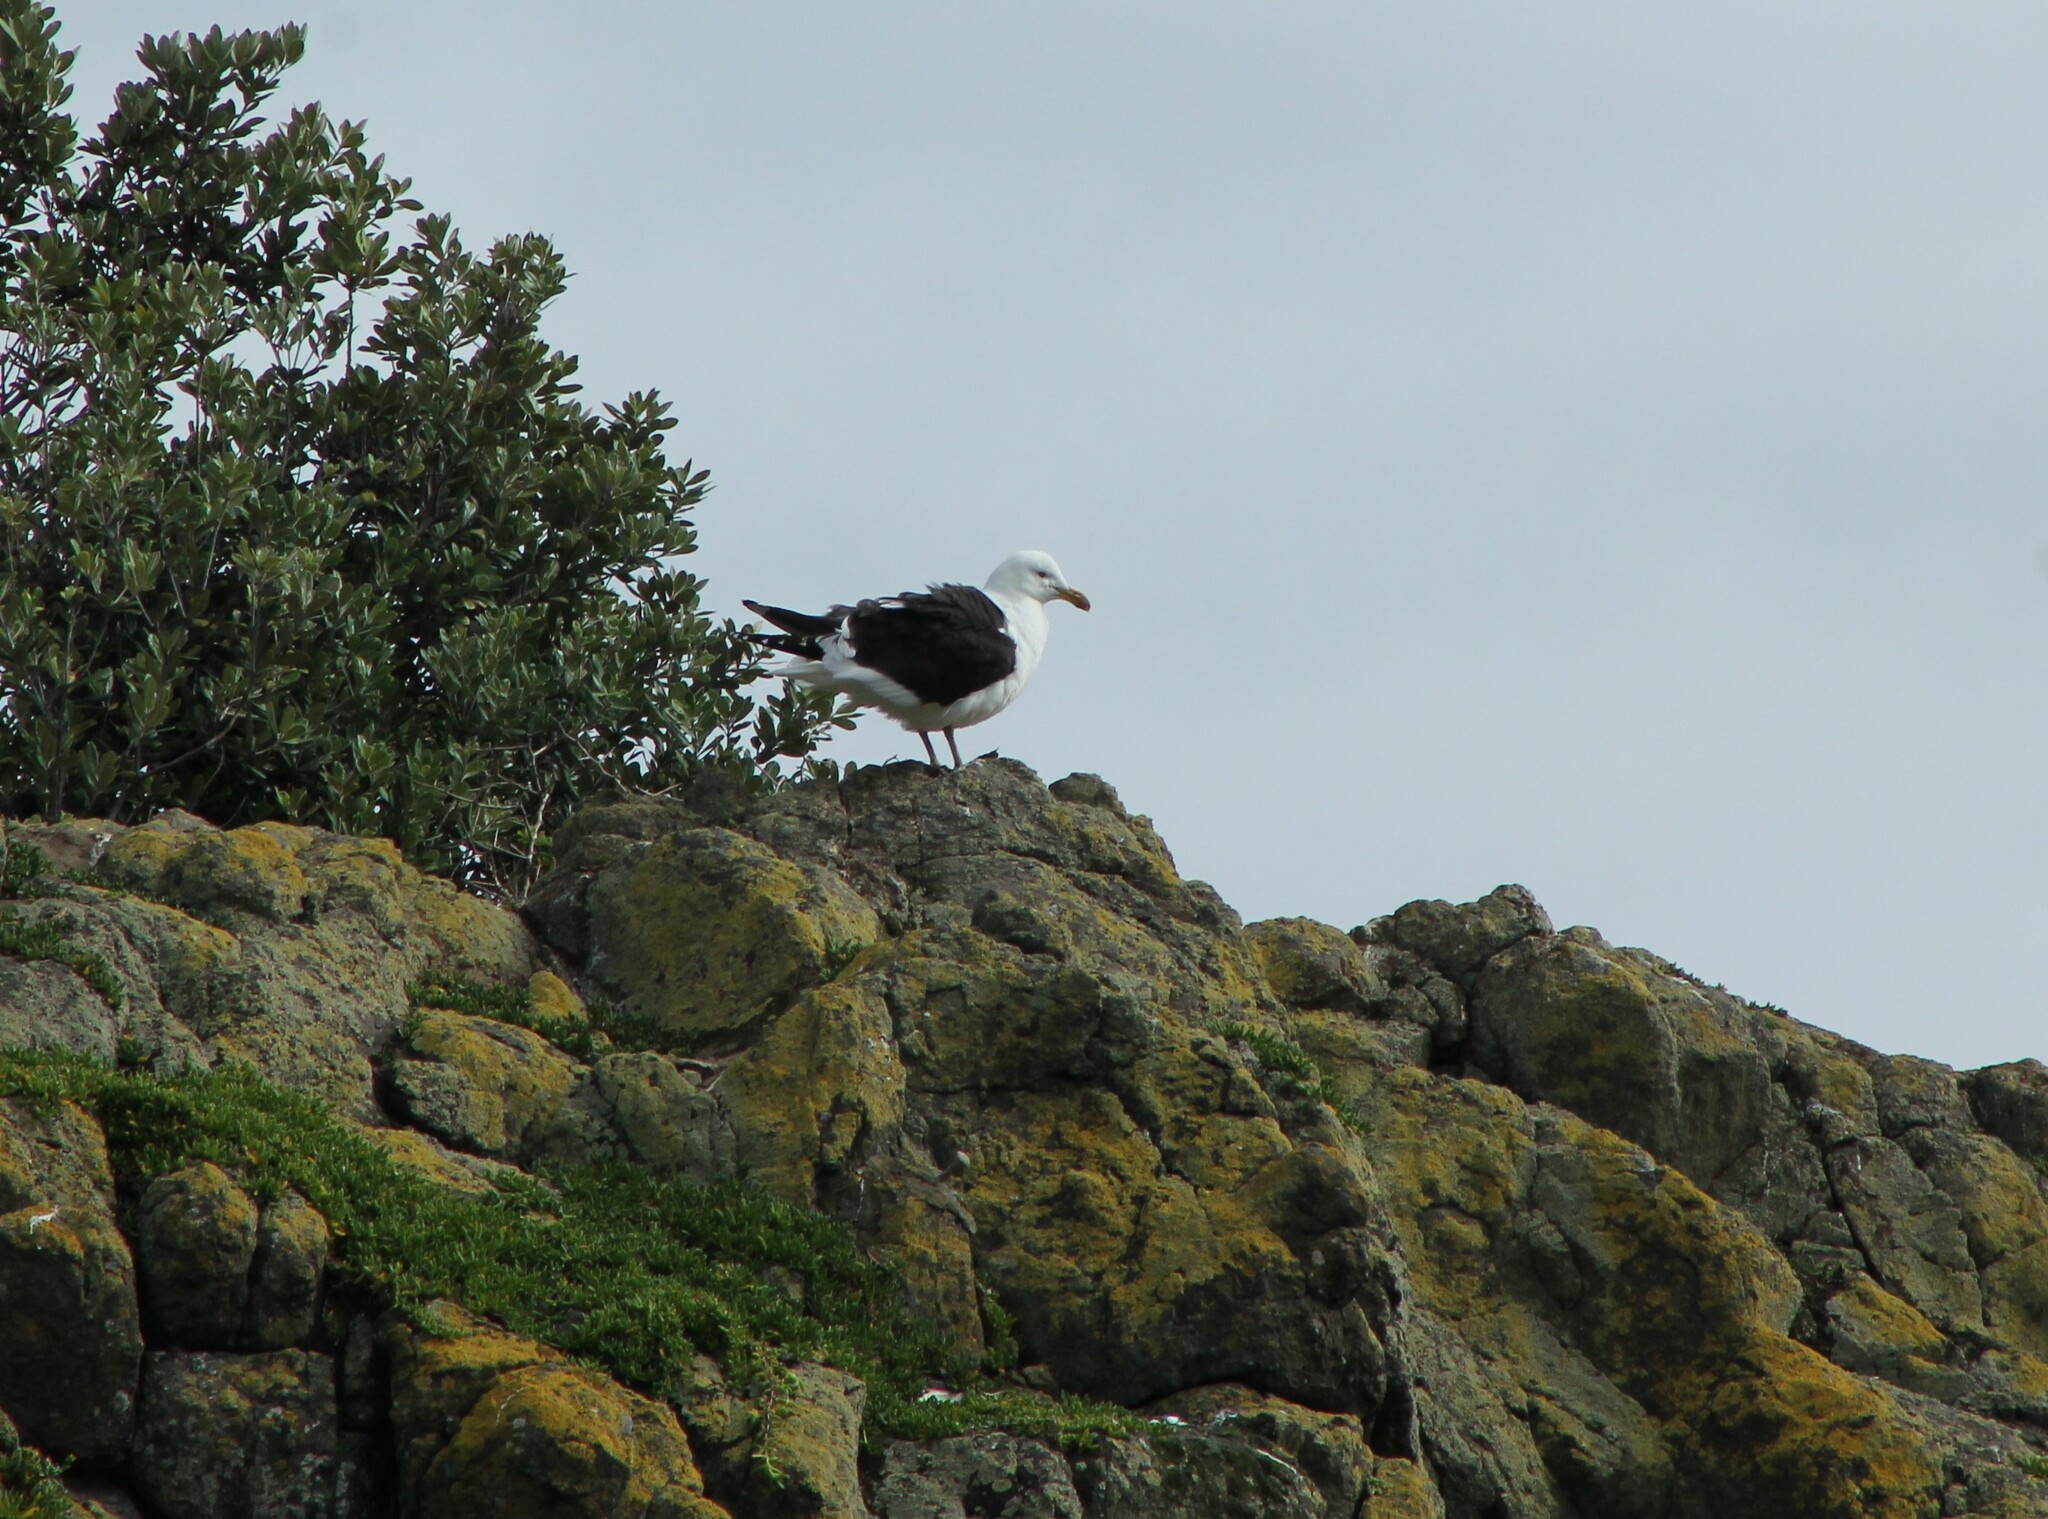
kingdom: Animalia
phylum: Chordata
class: Aves
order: Charadriiformes
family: Laridae
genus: Larus
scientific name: Larus dominicanus
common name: Kelp gull
